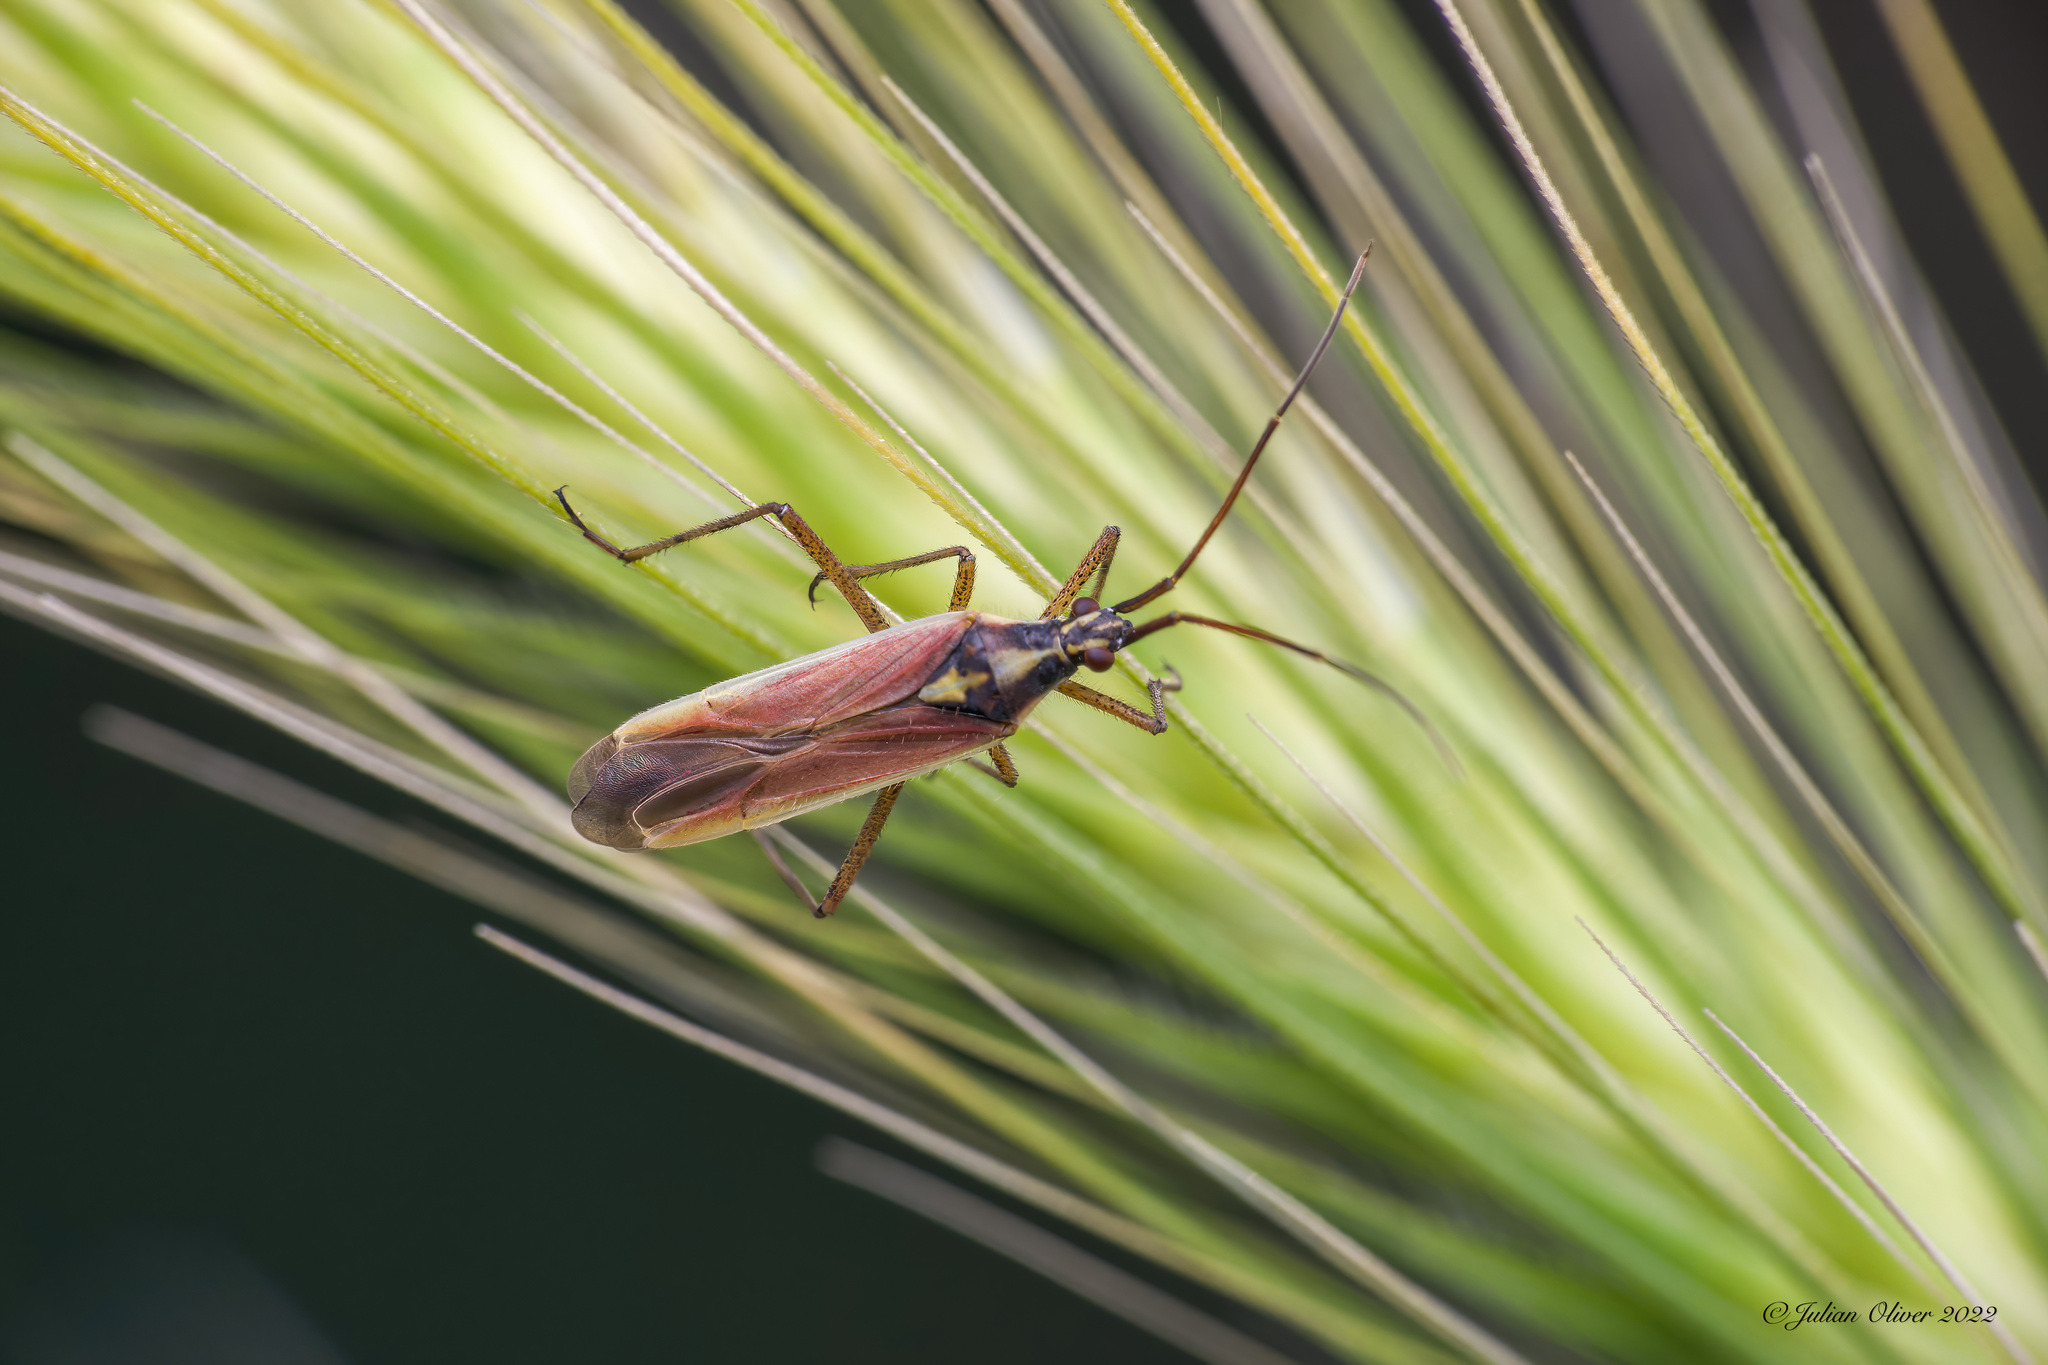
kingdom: Animalia
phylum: Arthropoda
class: Insecta
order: Hemiptera
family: Miridae
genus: Leptopterna
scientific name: Leptopterna ferrugata
